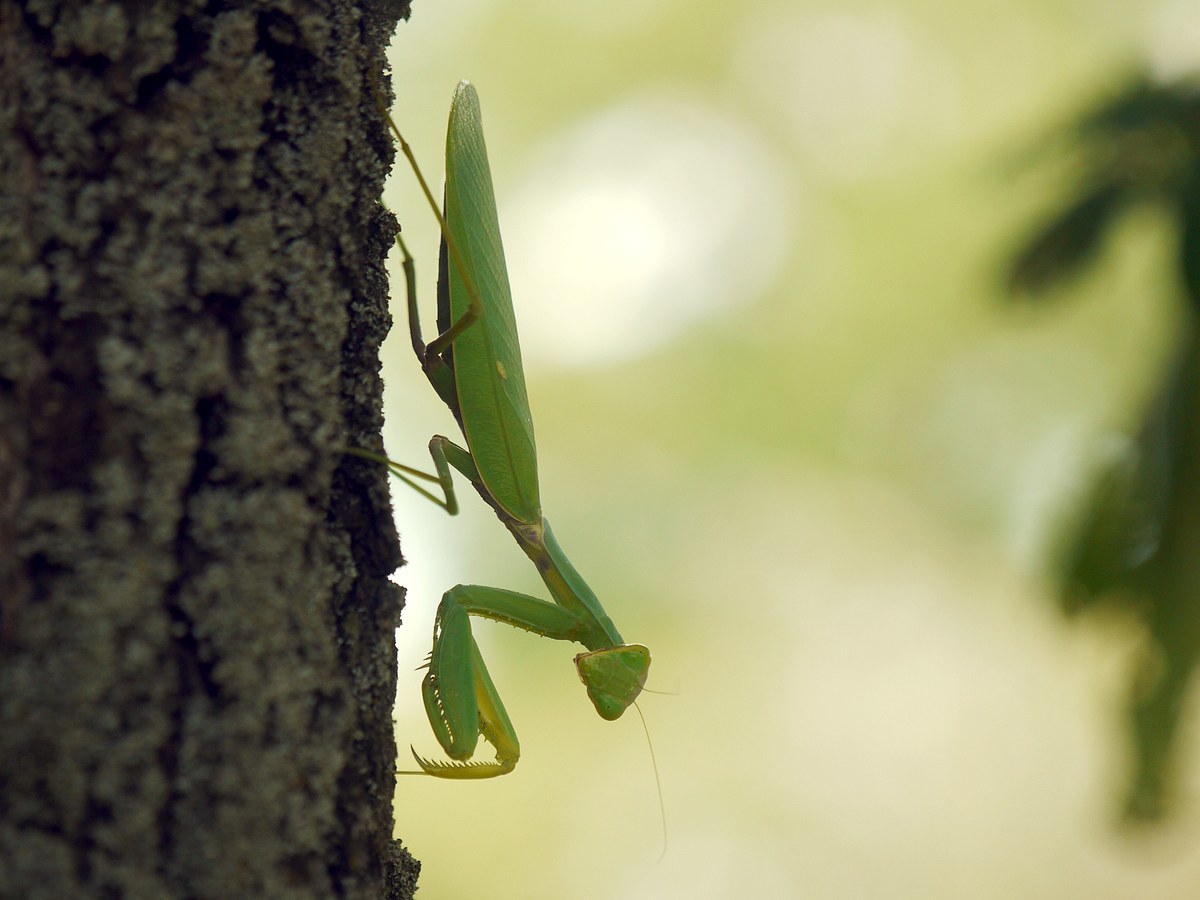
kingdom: Animalia
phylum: Arthropoda
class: Insecta
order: Mantodea
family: Mantidae
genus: Hierodula
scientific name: Hierodula transcaucasica
